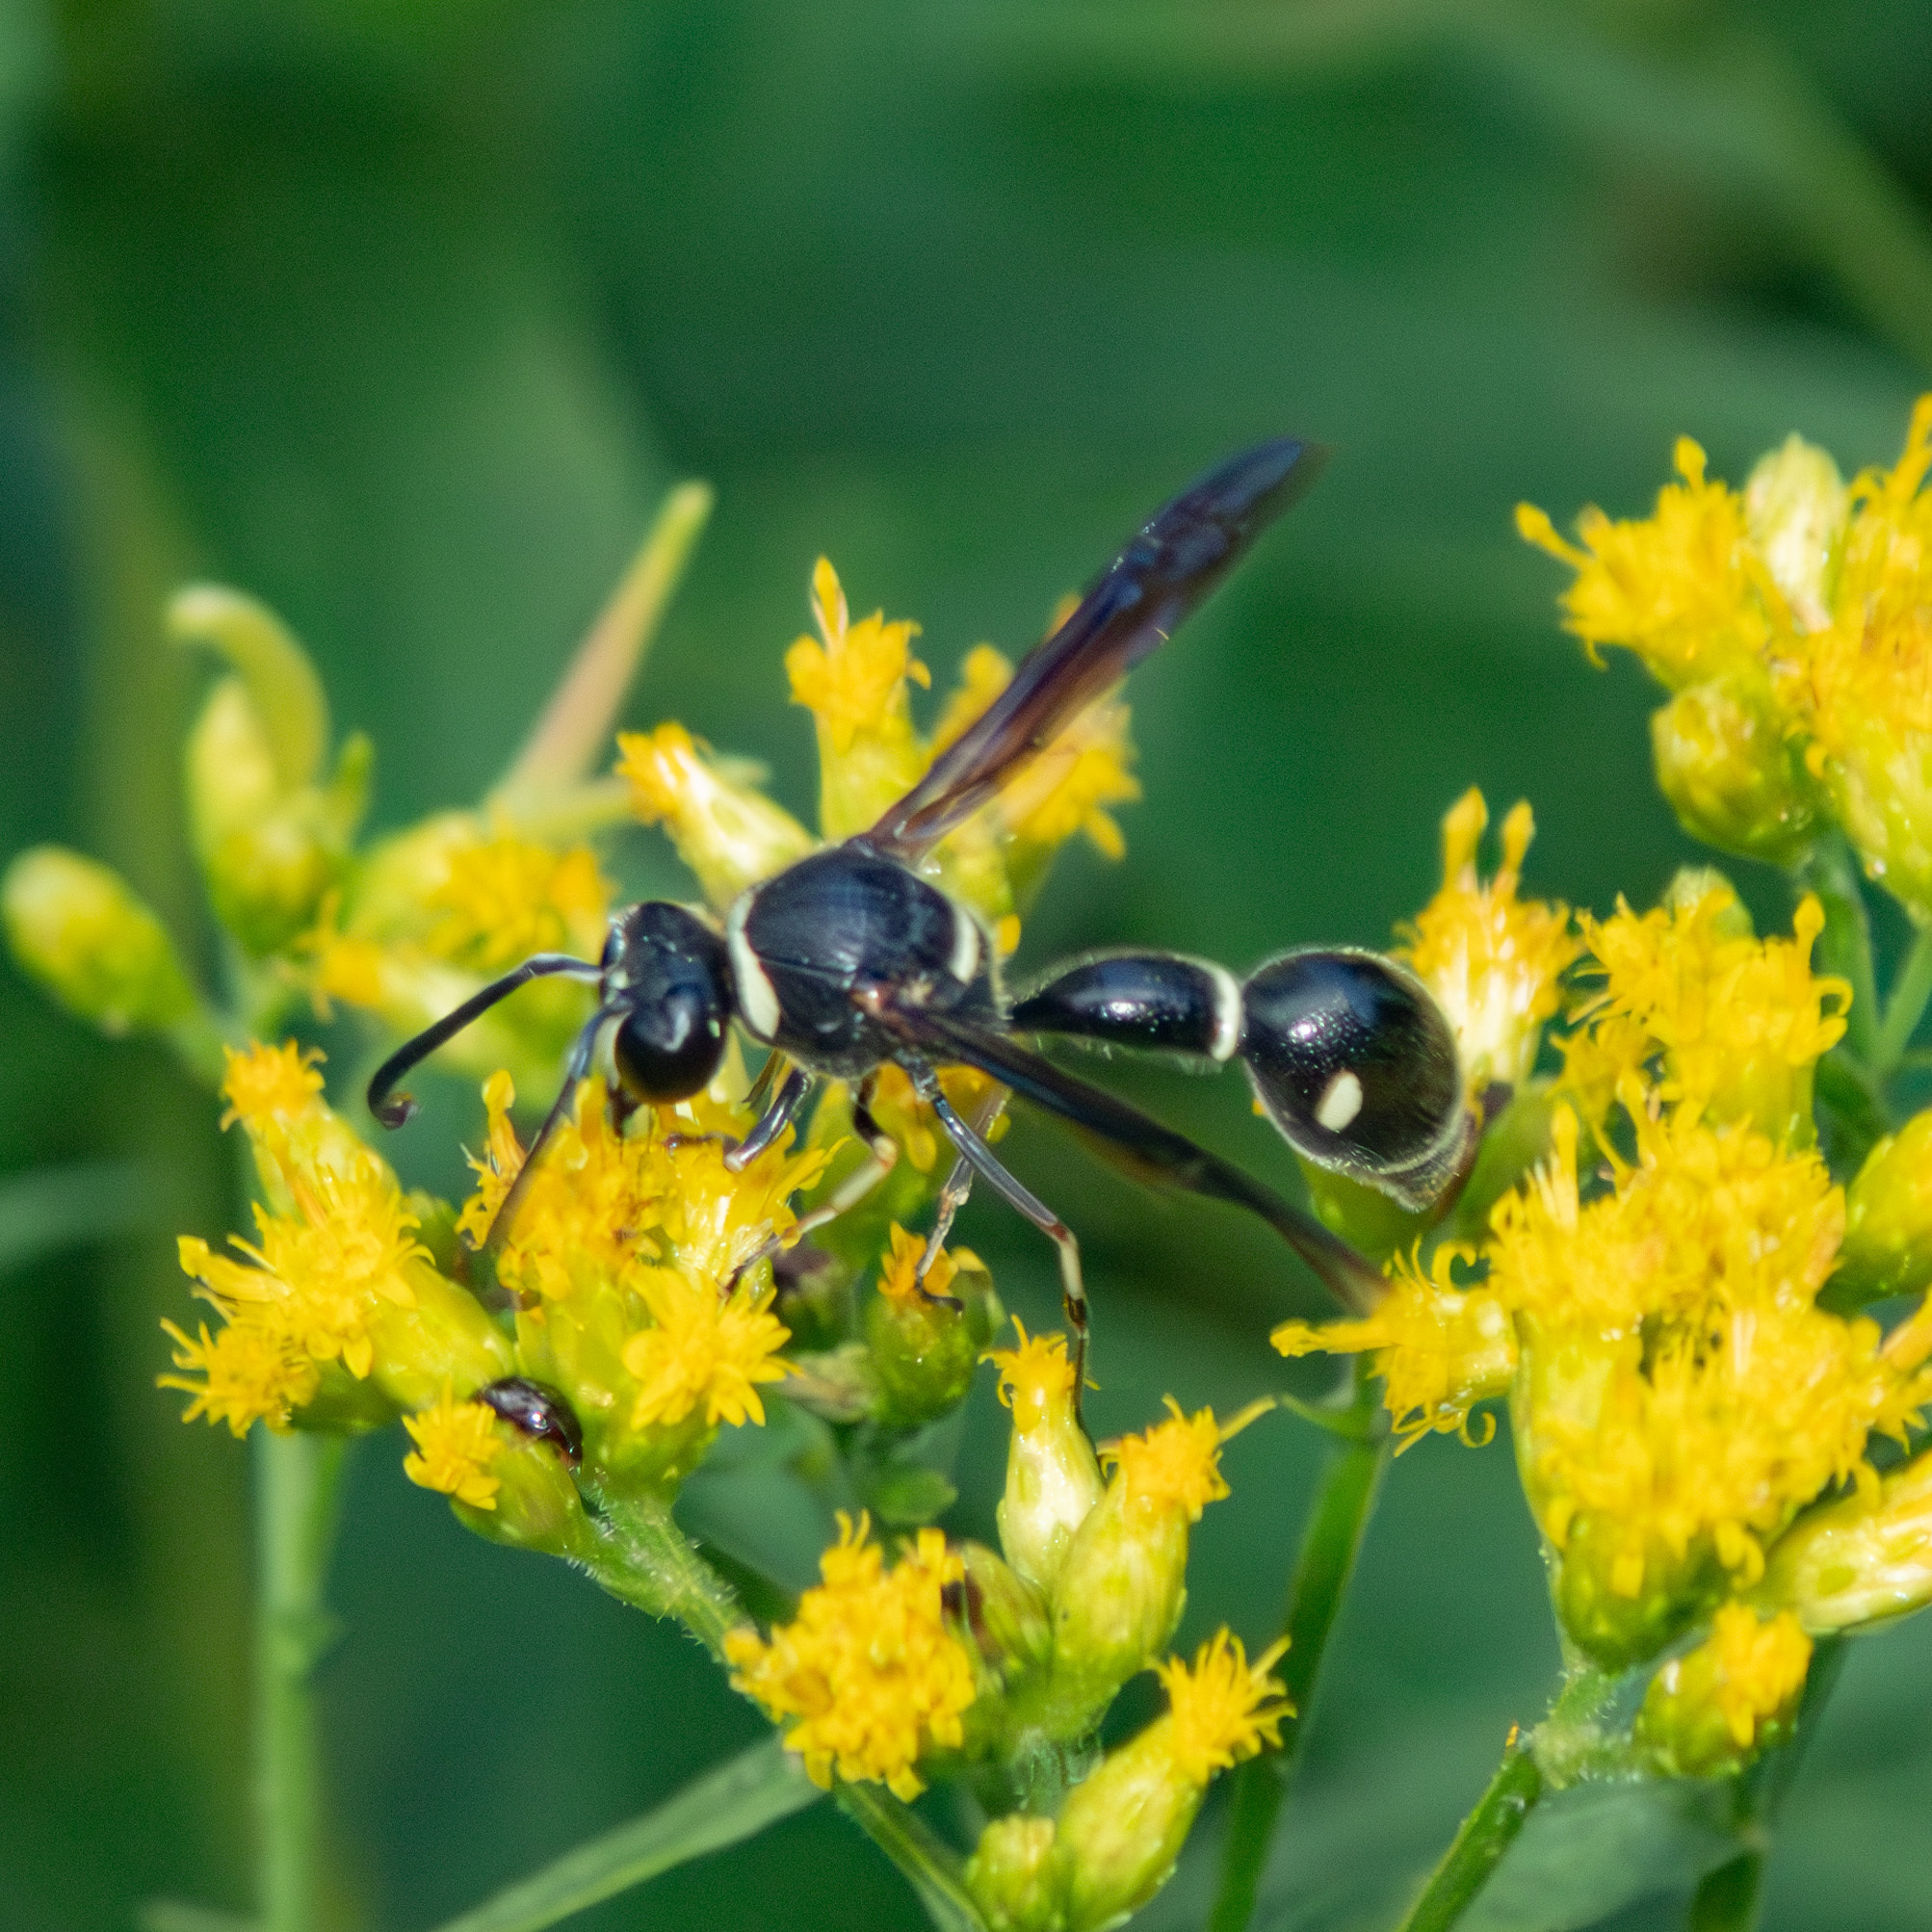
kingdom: Animalia
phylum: Arthropoda
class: Insecta
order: Hymenoptera
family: Vespidae
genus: Eumenes
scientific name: Eumenes fraternus
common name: Fraternal potter wasp
